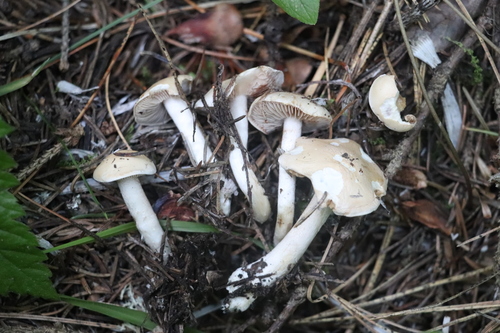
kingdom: Fungi
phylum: Basidiomycota
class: Agaricomycetes
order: Agaricales
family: Hymenogastraceae
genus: Hebeloma
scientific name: Hebeloma crustuliniforme
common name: Poison pie
